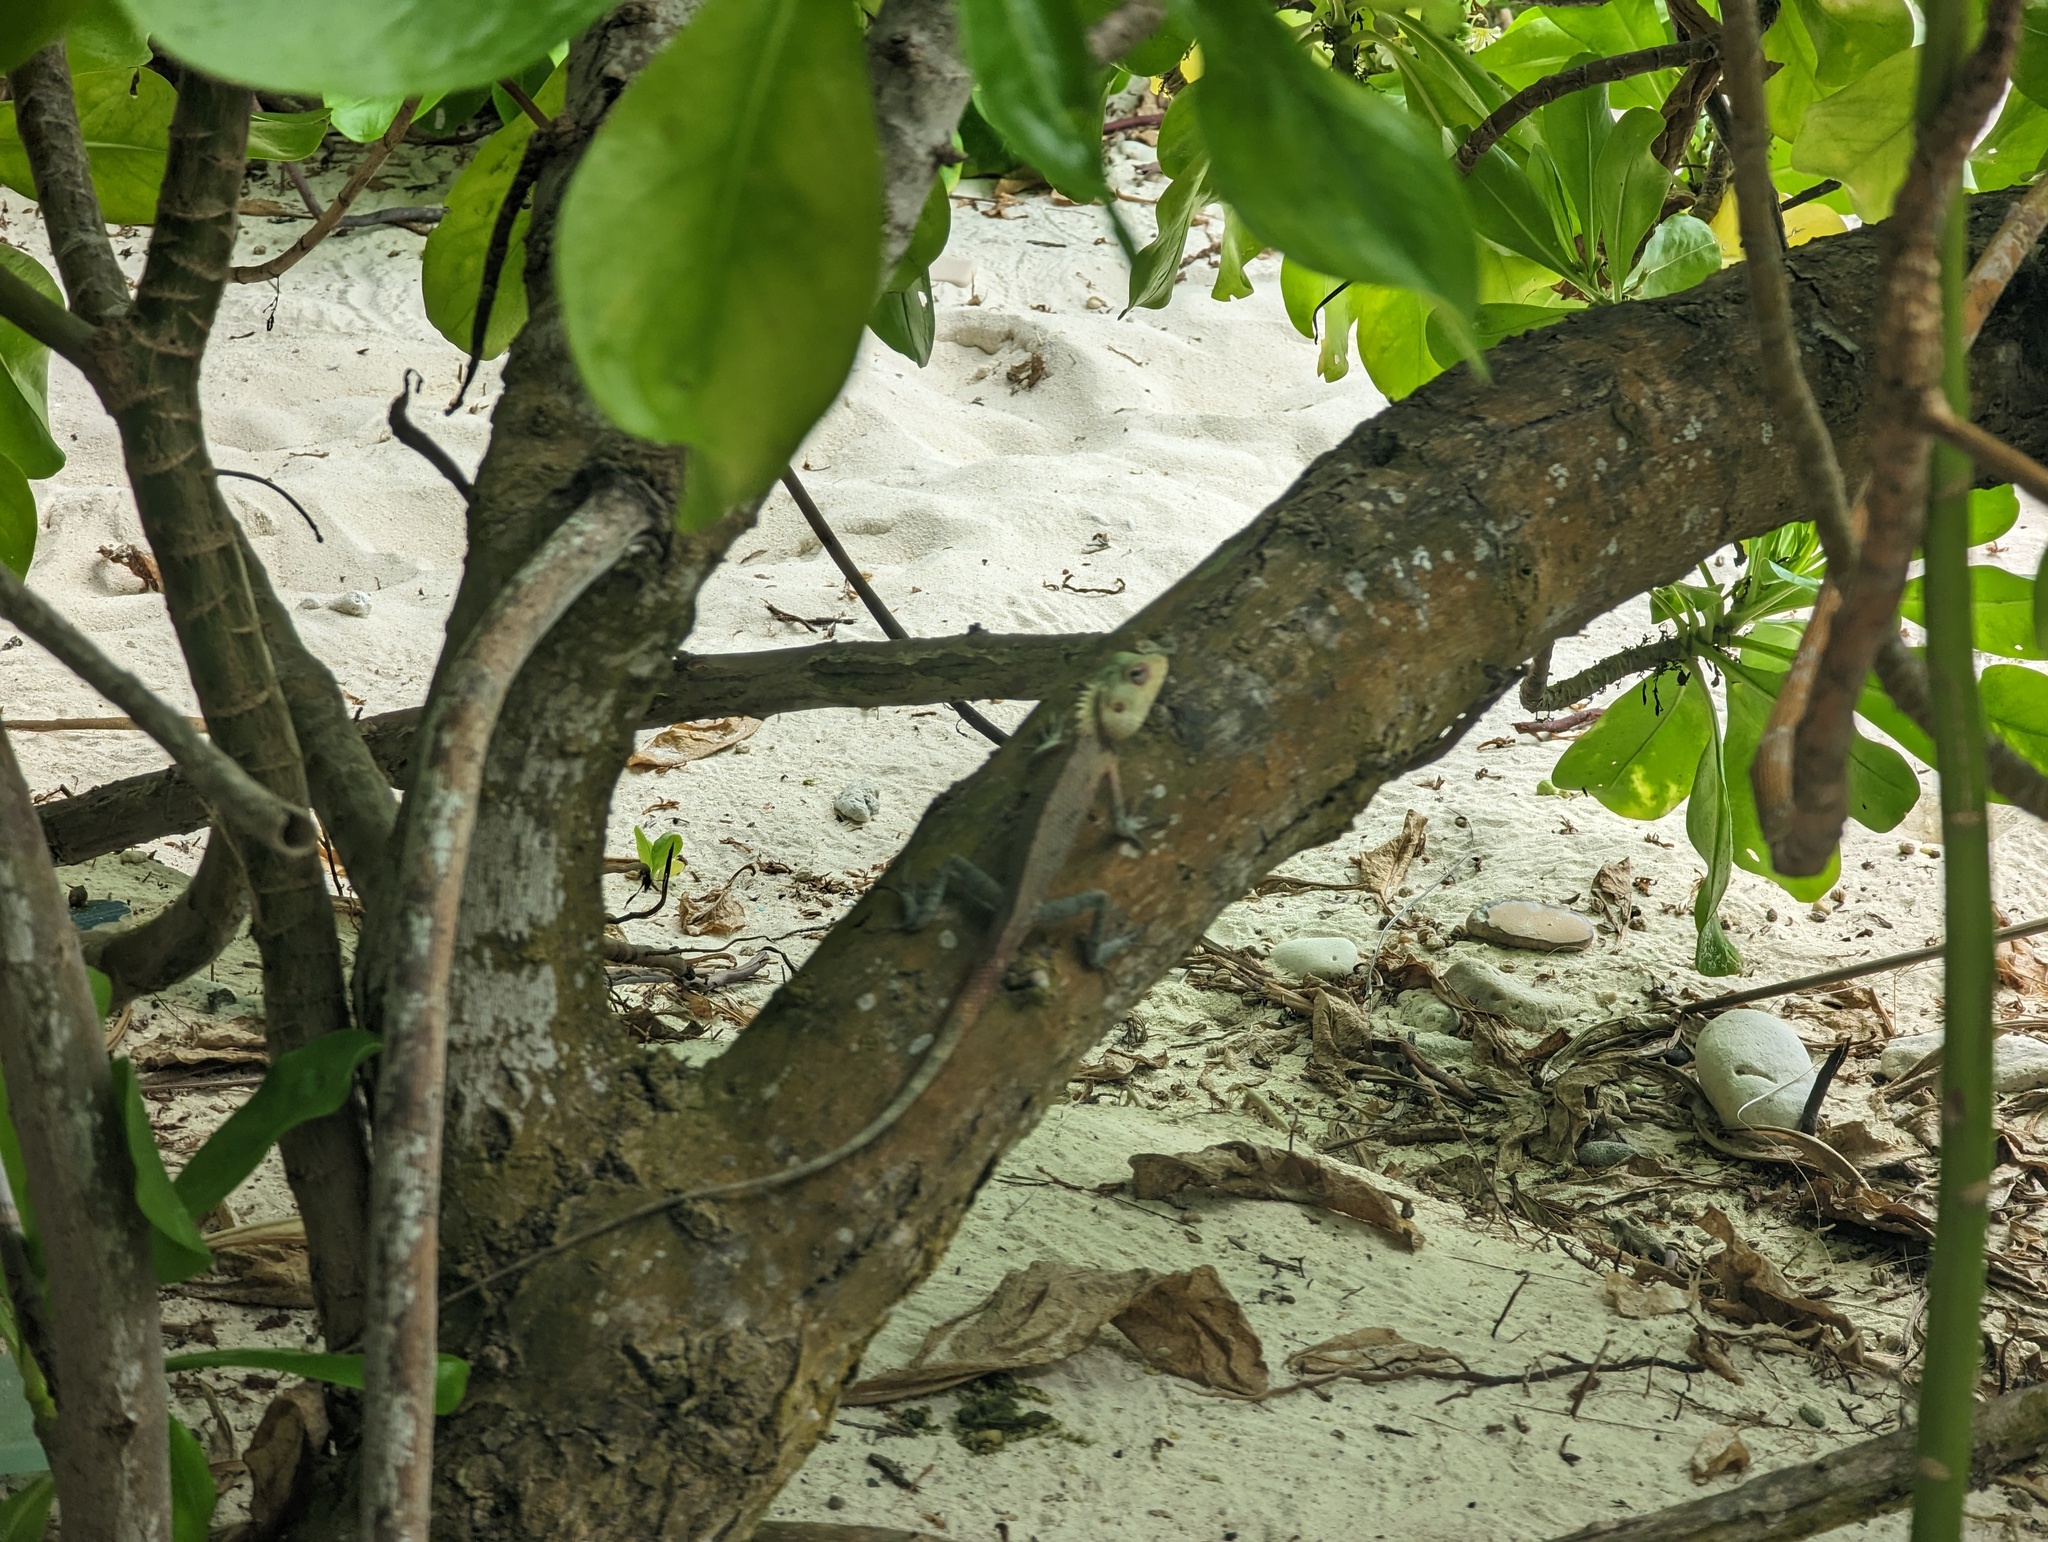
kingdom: Animalia
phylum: Chordata
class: Squamata
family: Agamidae
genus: Calotes
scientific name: Calotes versicolor
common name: Oriental garden lizard
